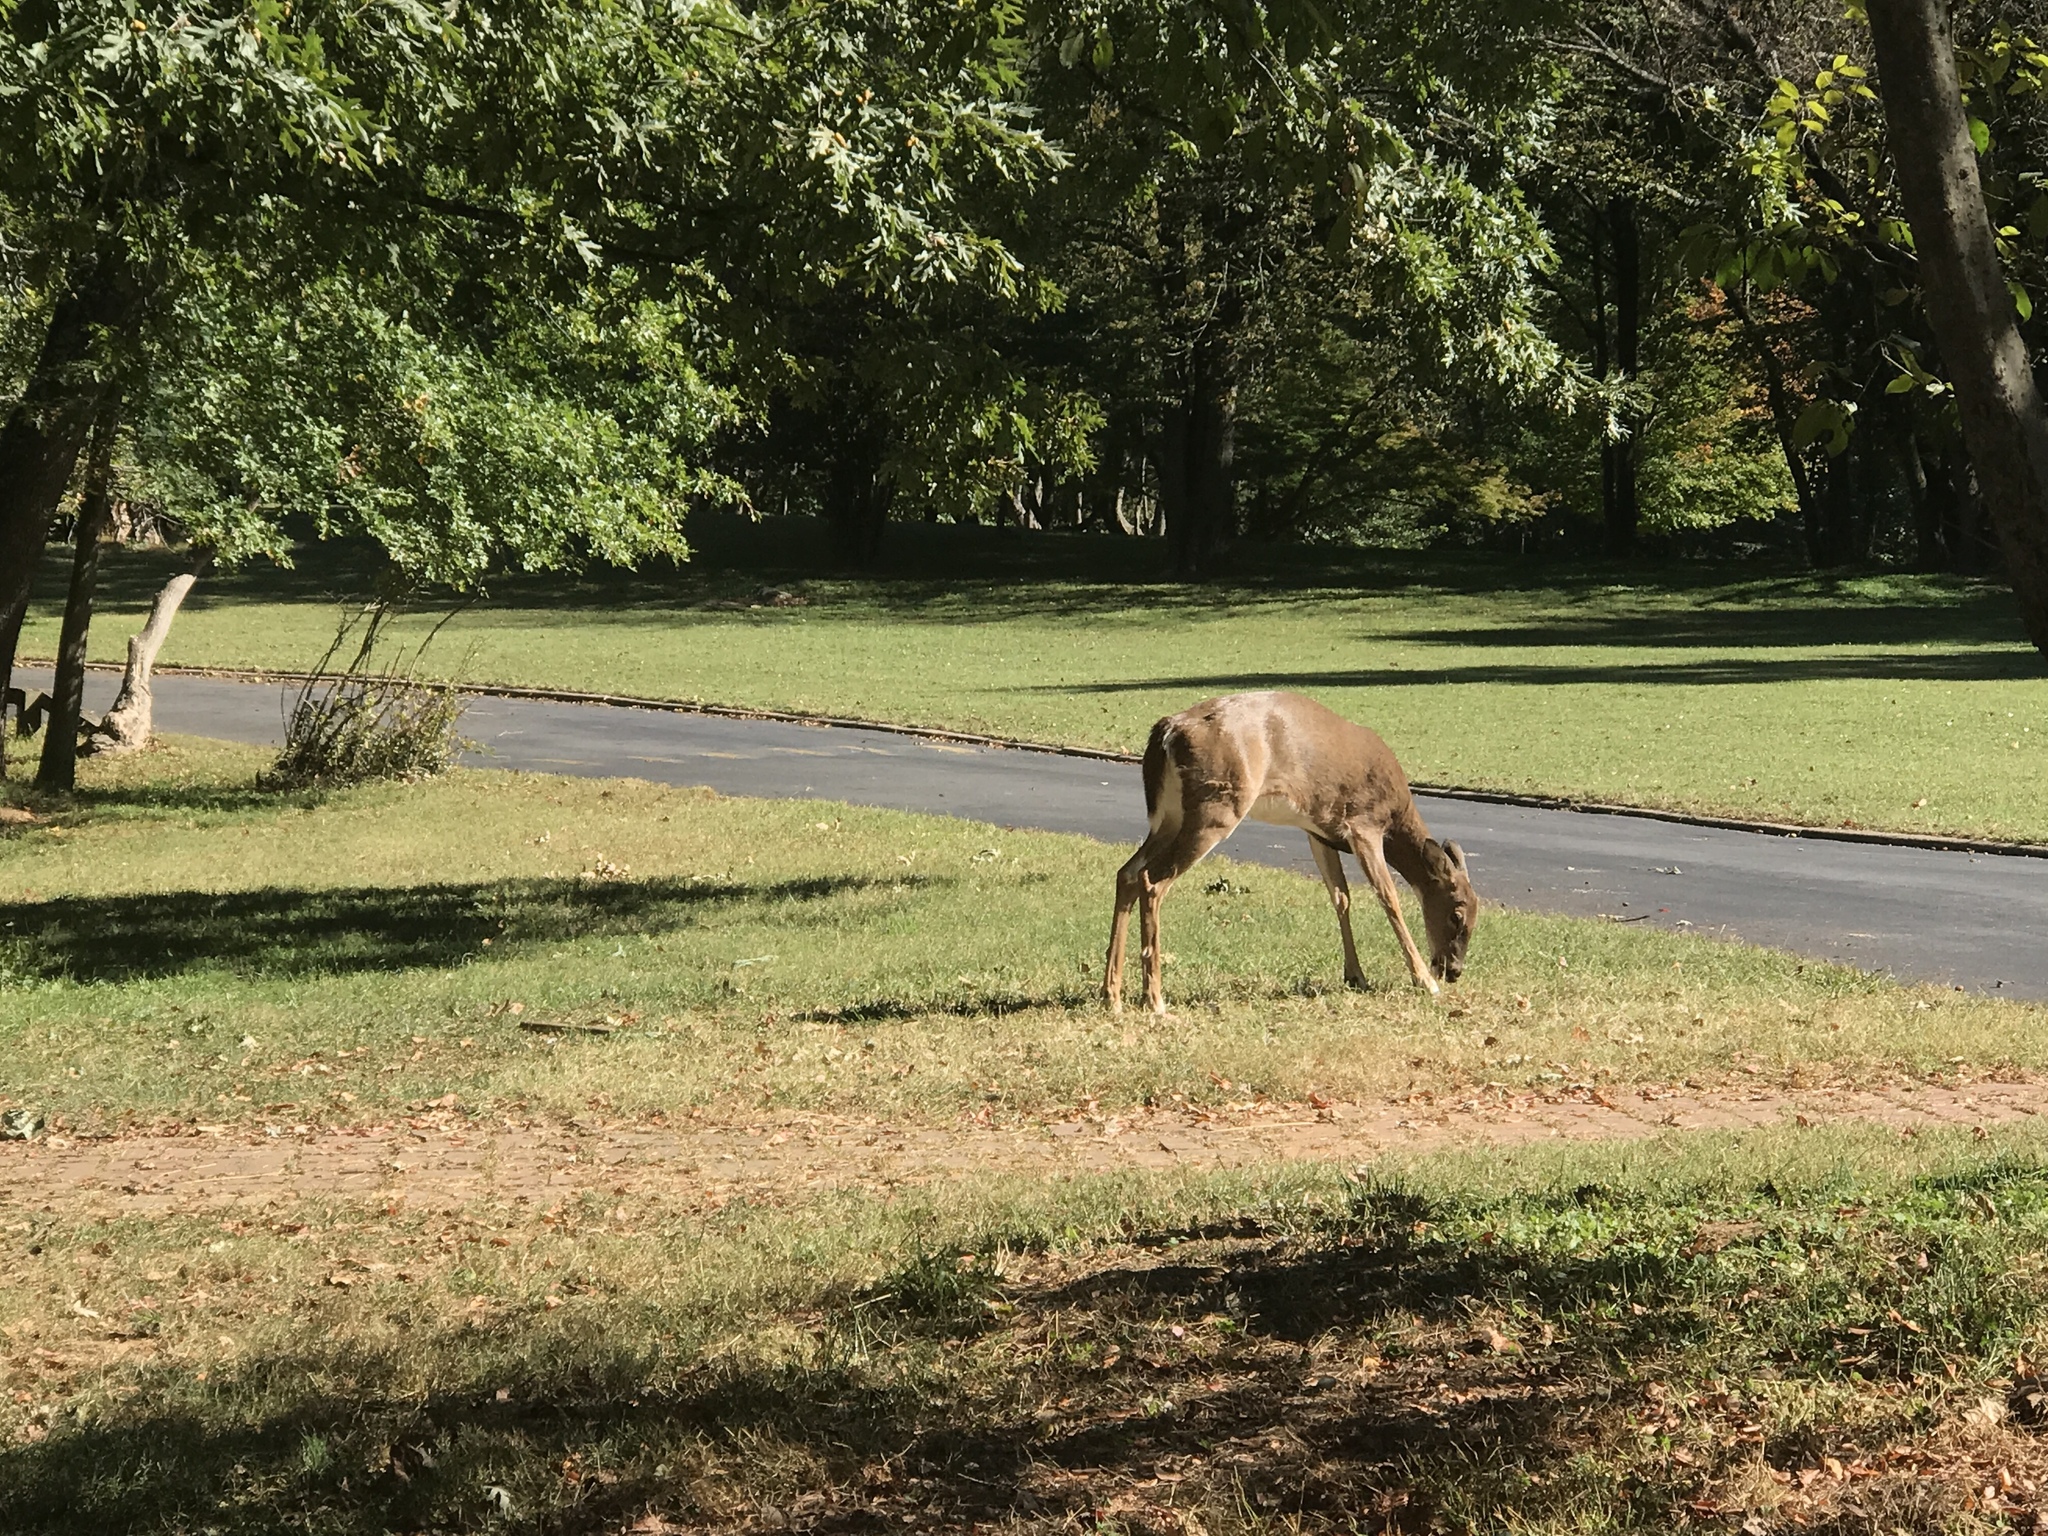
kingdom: Animalia
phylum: Chordata
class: Mammalia
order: Artiodactyla
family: Cervidae
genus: Odocoileus
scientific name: Odocoileus virginianus
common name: White-tailed deer
